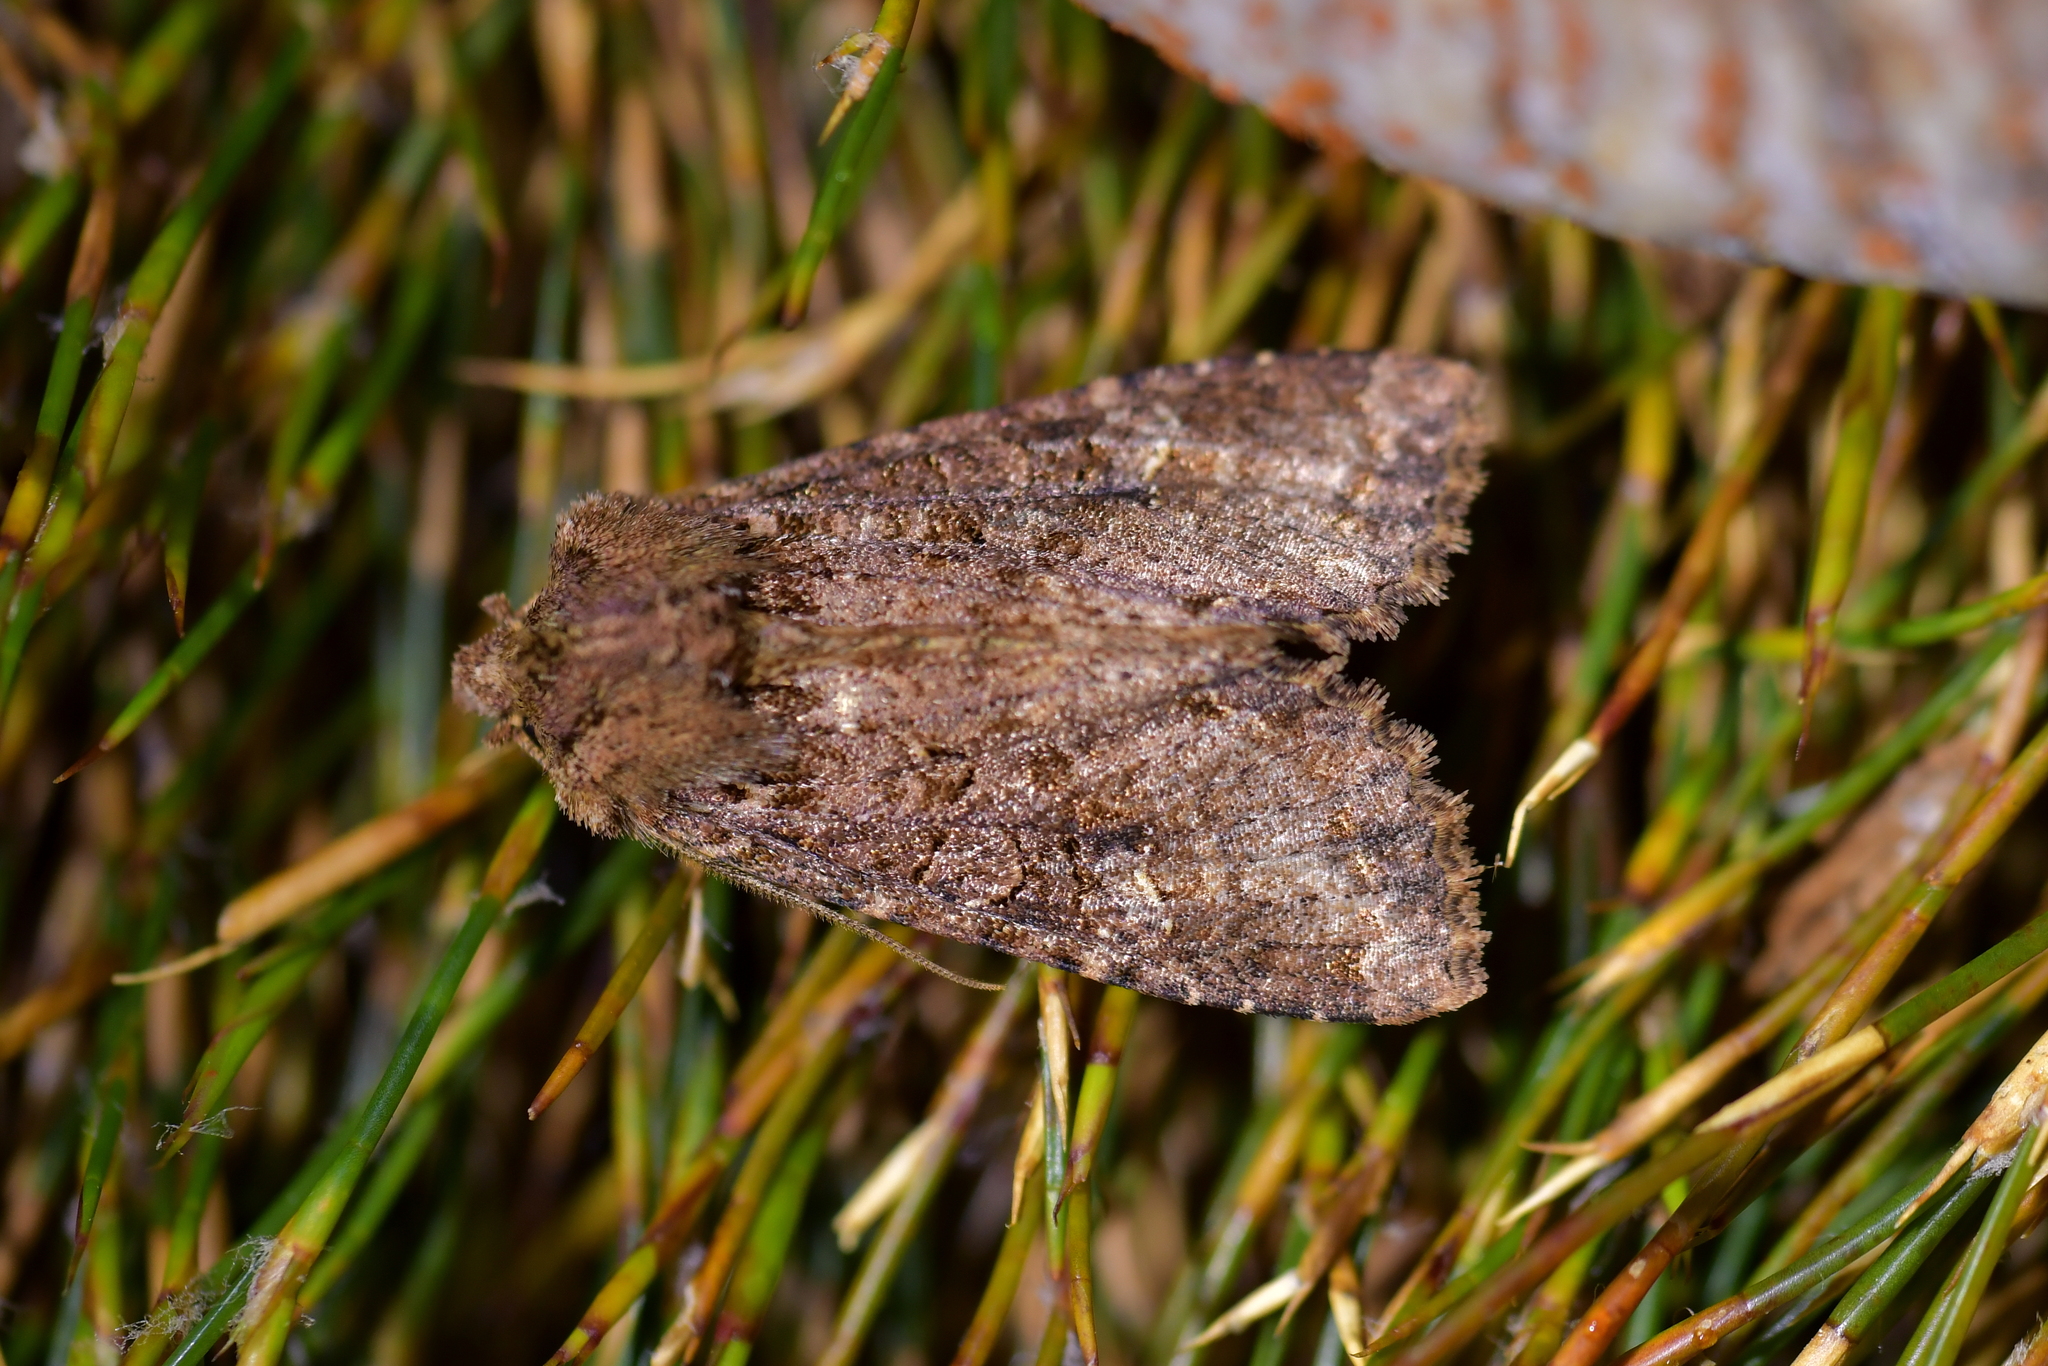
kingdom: Animalia
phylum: Arthropoda
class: Insecta
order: Lepidoptera
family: Noctuidae
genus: Meterana
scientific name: Meterana
